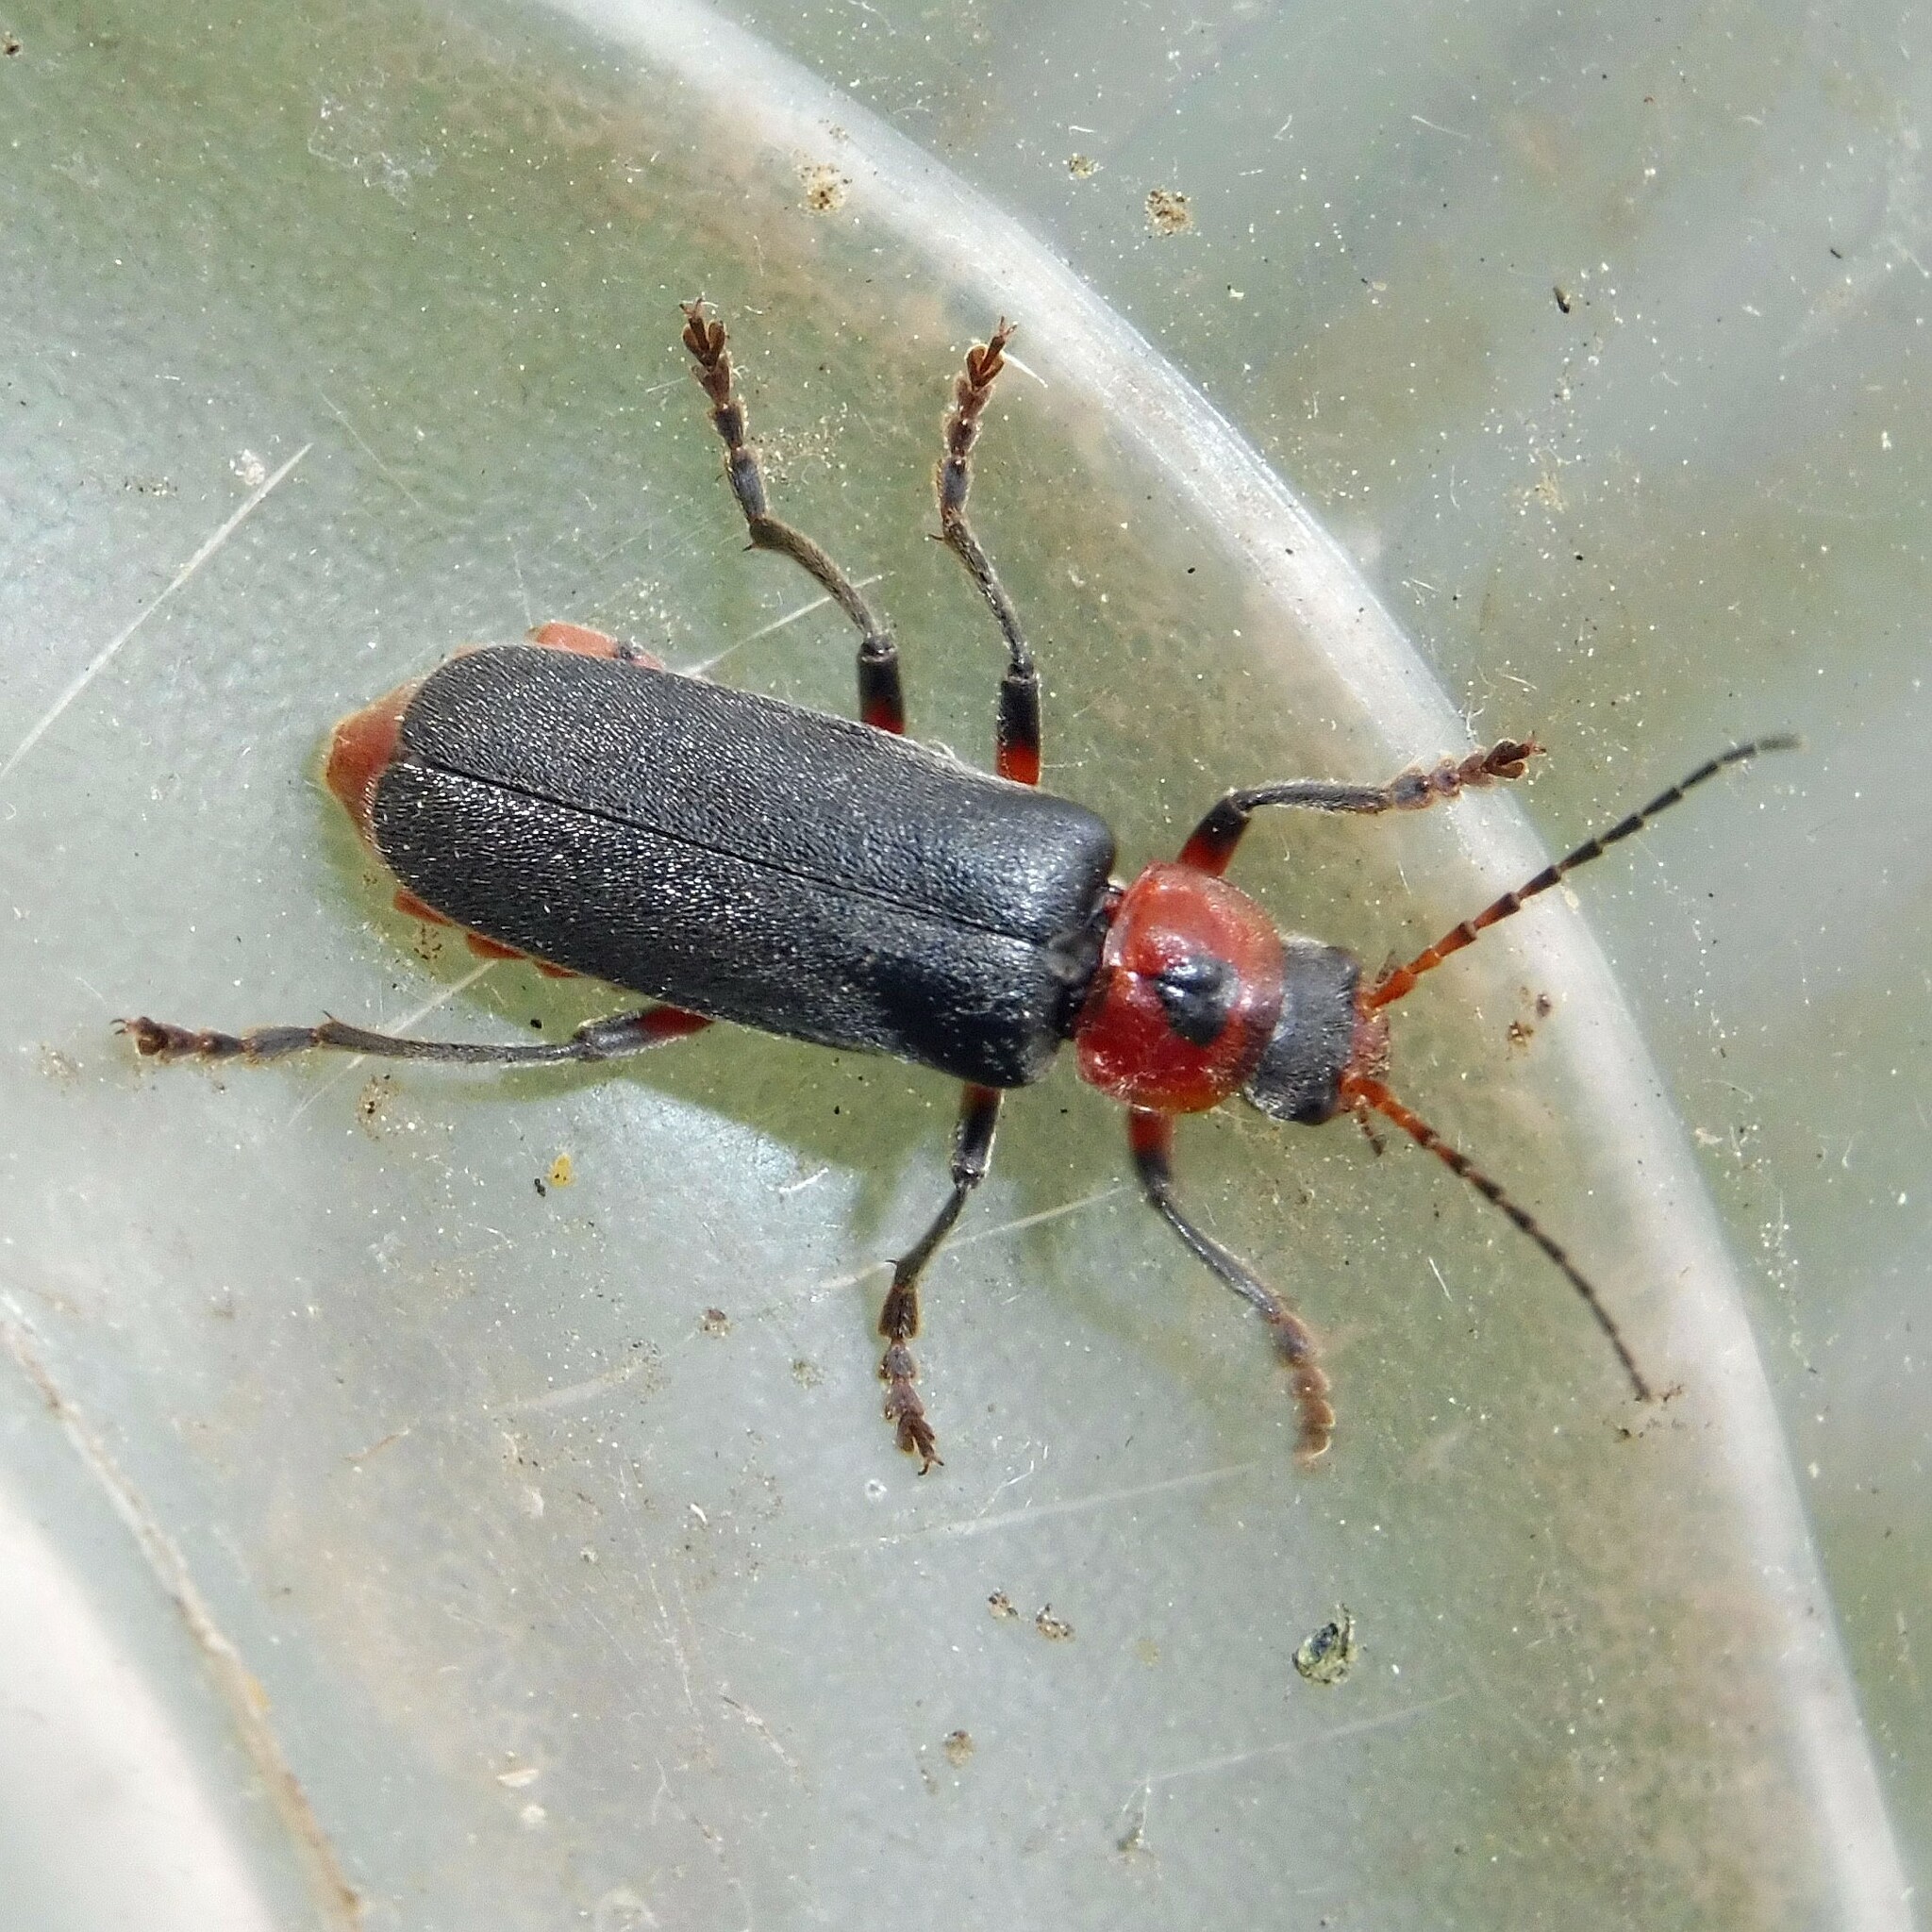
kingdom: Animalia
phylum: Arthropoda
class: Insecta
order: Coleoptera
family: Cantharidae
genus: Cantharis
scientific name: Cantharis rustica
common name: Soldier beetle
